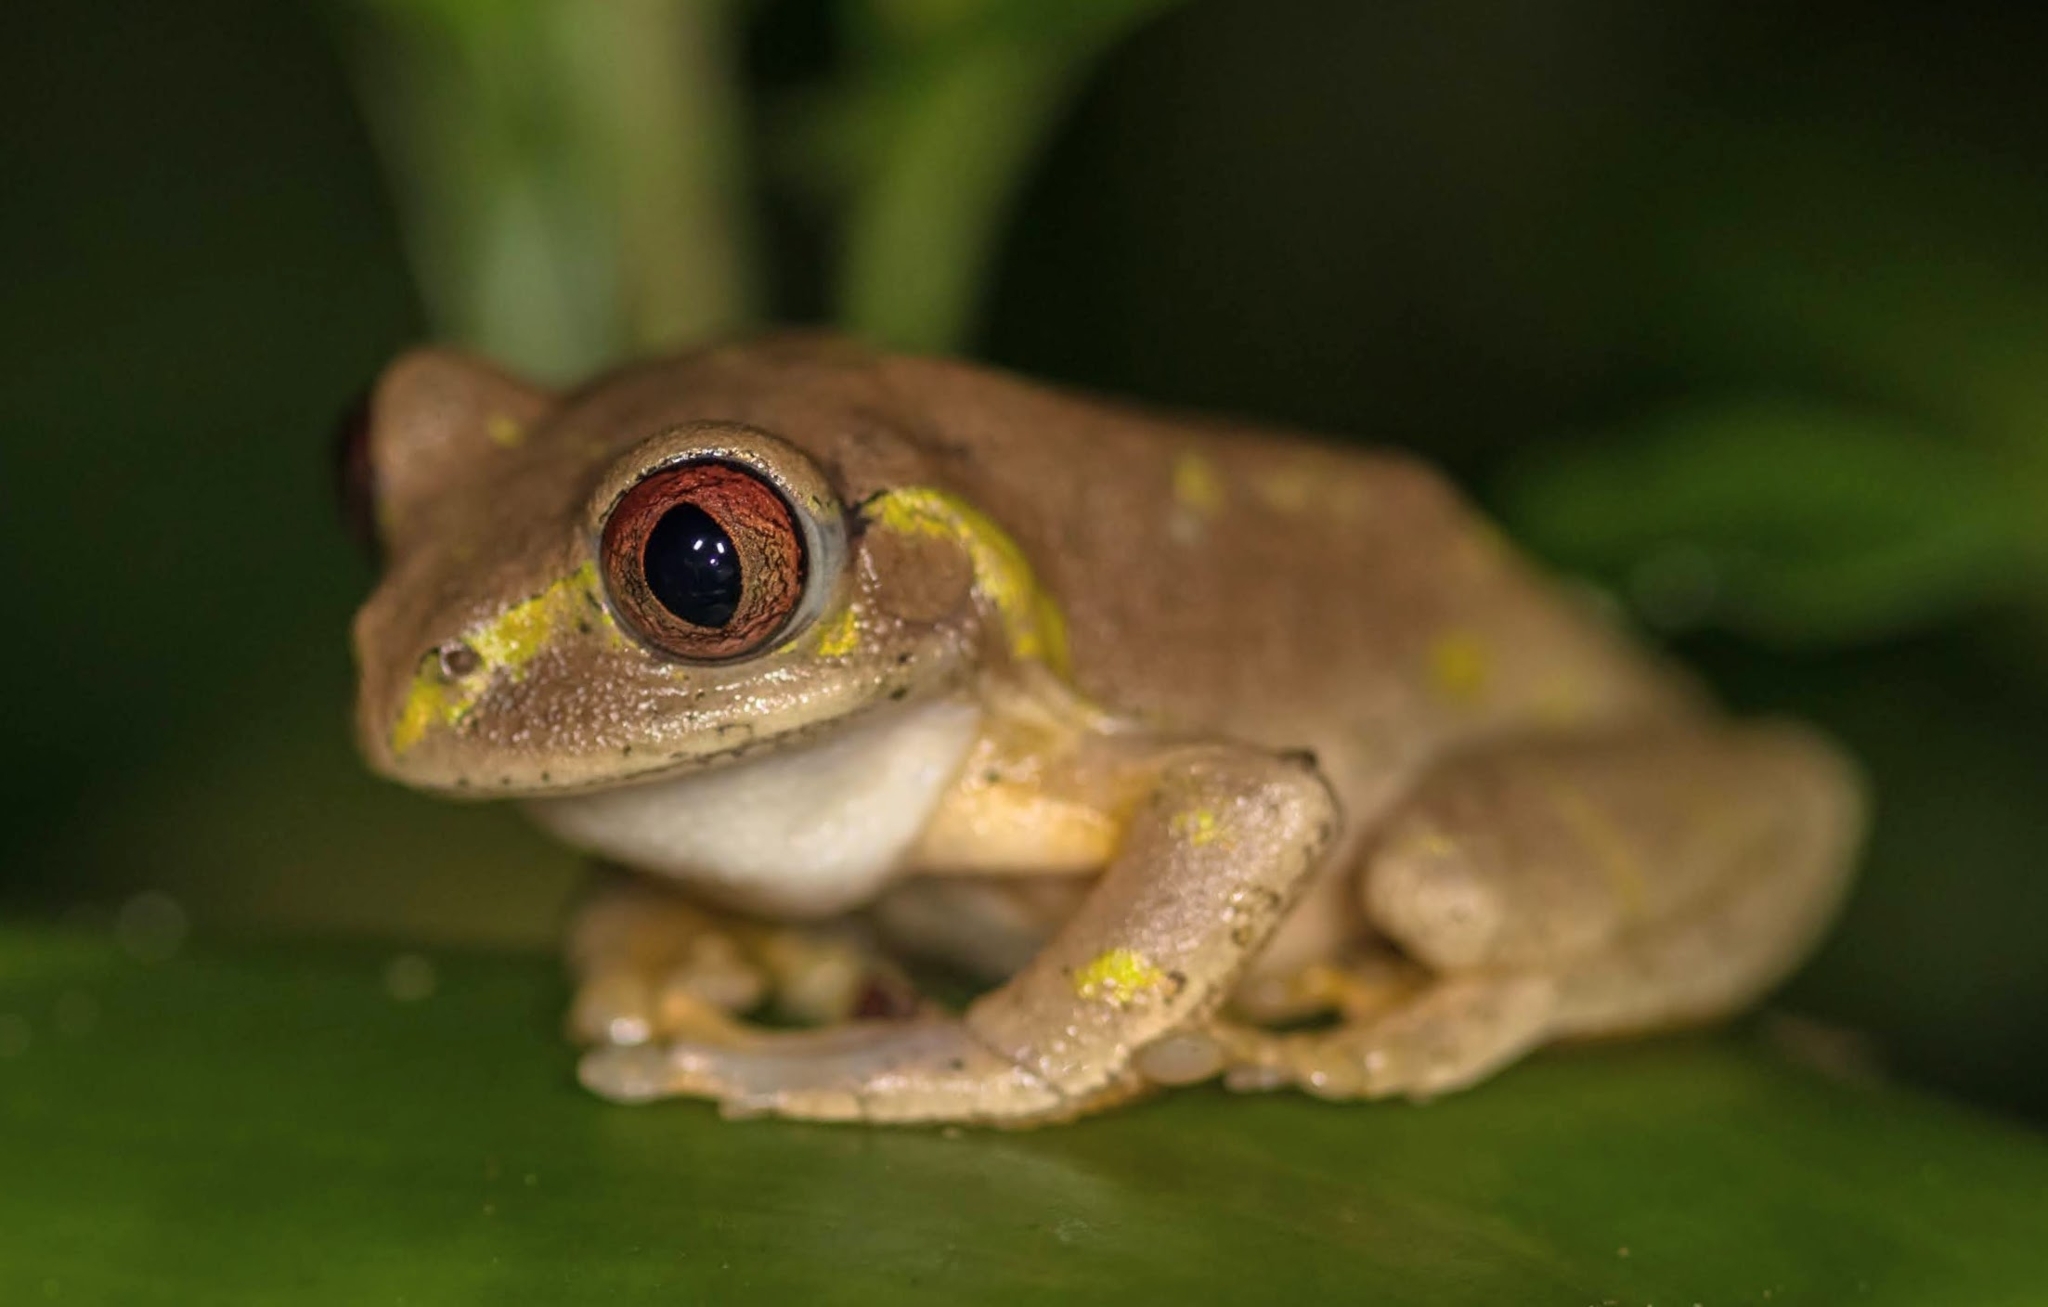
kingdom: Animalia
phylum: Chordata
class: Amphibia
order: Anura
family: Arthroleptidae
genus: Leptopelis
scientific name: Leptopelis natalensis
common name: Natal tree frog
